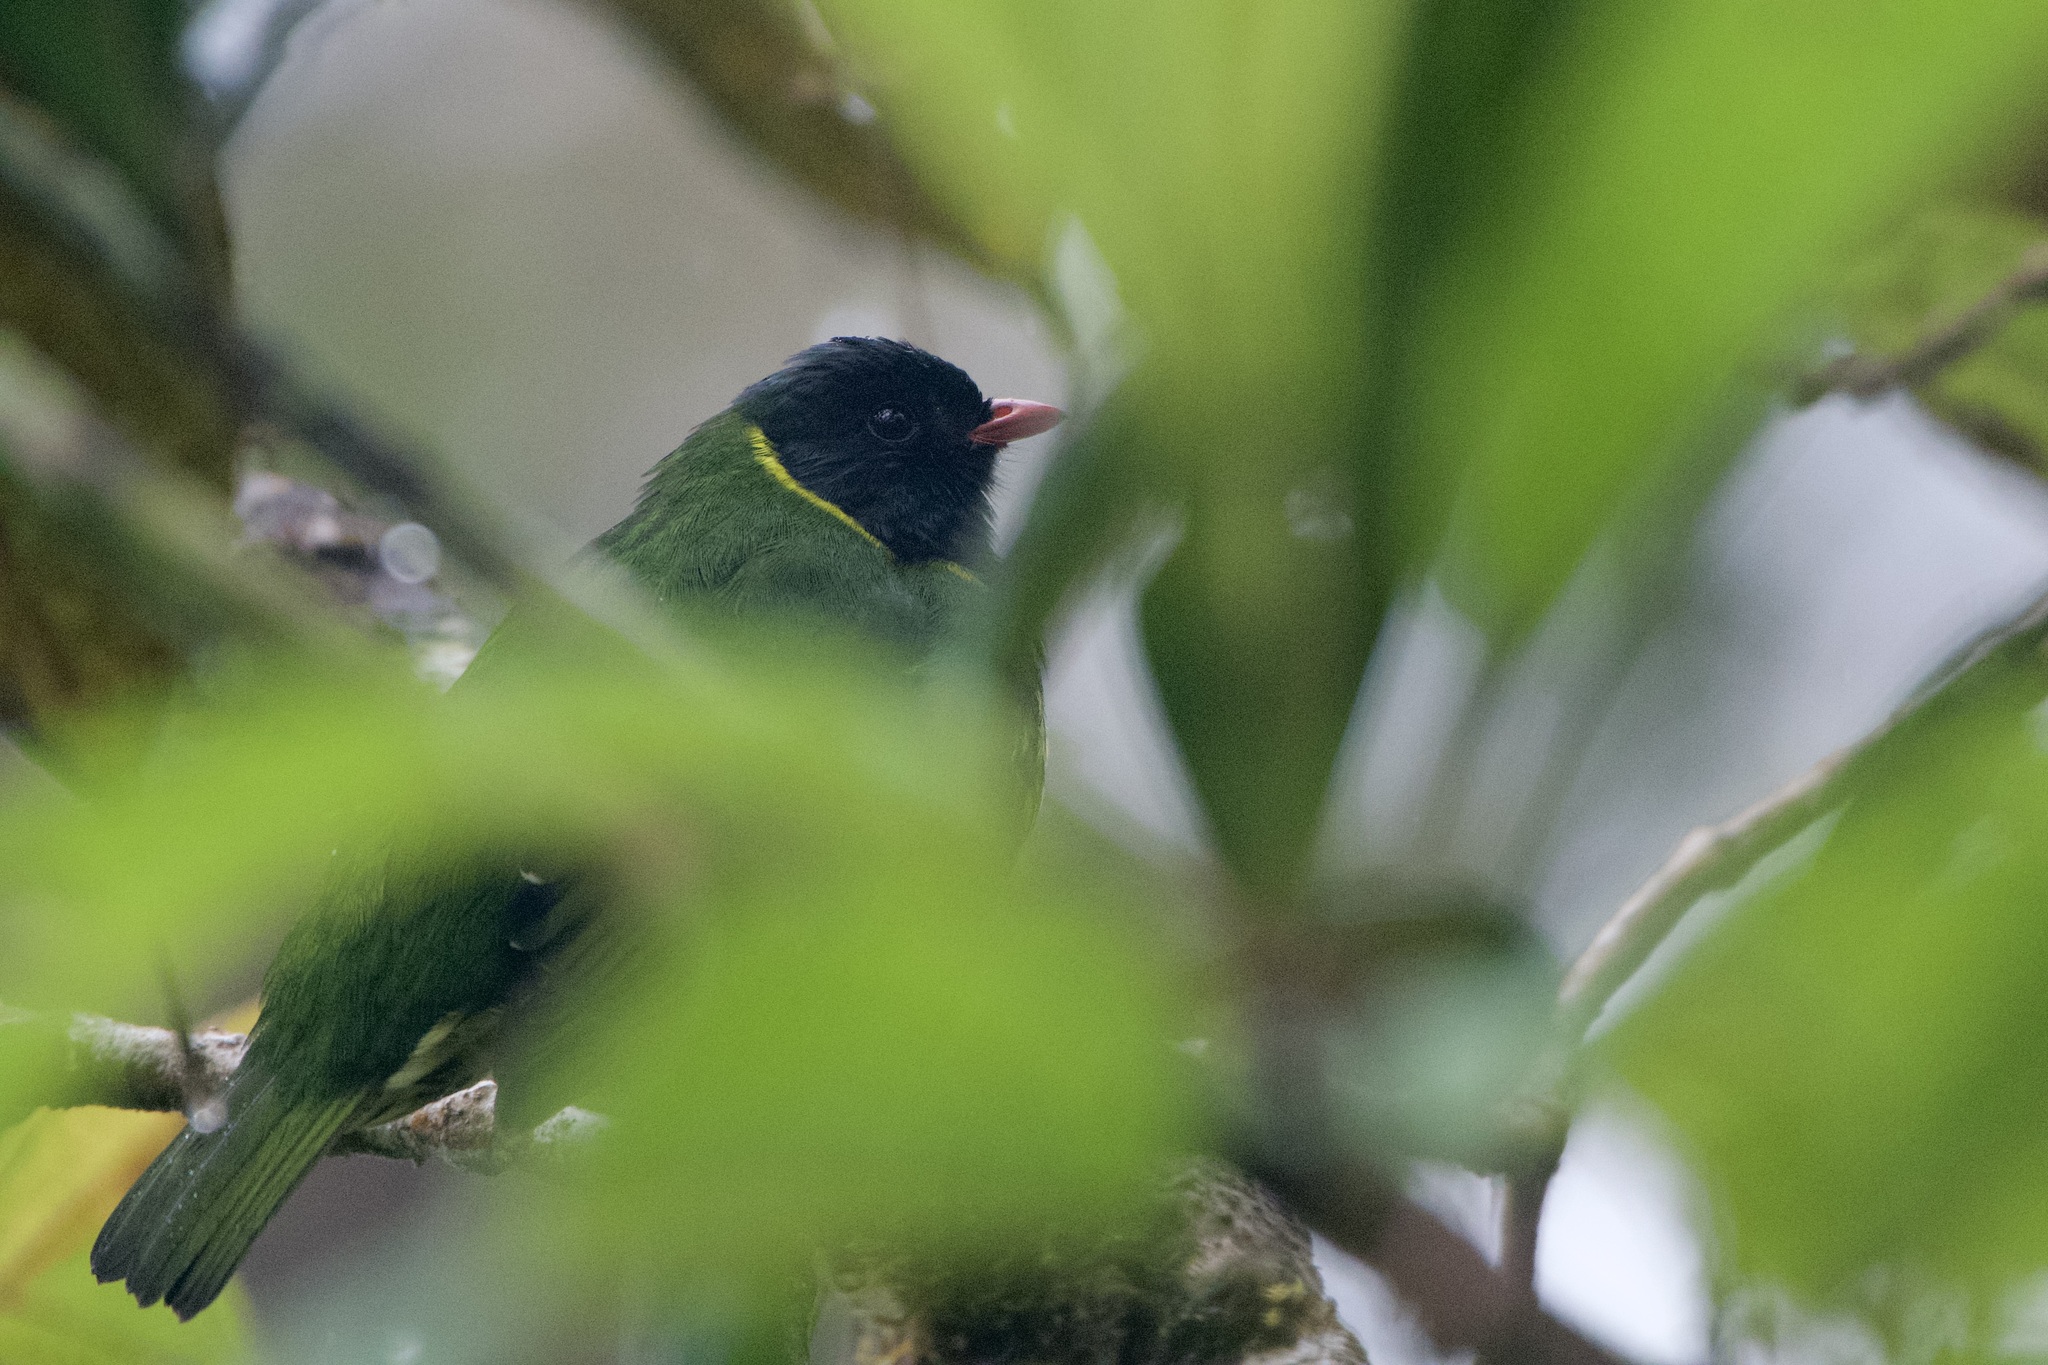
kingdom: Animalia
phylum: Chordata
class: Aves
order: Passeriformes
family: Cotingidae
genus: Pipreola
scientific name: Pipreola riefferii
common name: Green-and-black fruiteater
